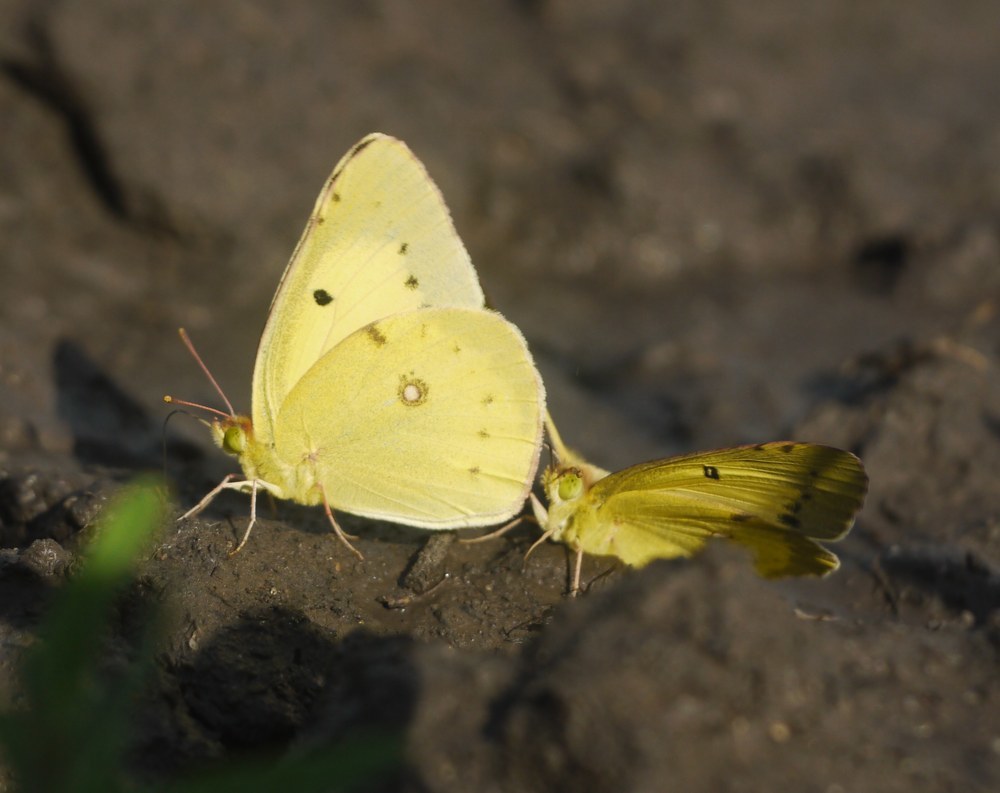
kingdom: Animalia
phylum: Arthropoda
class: Insecta
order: Lepidoptera
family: Pieridae
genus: Colias
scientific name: Colias erate
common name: Eastern pale clouded yellow
